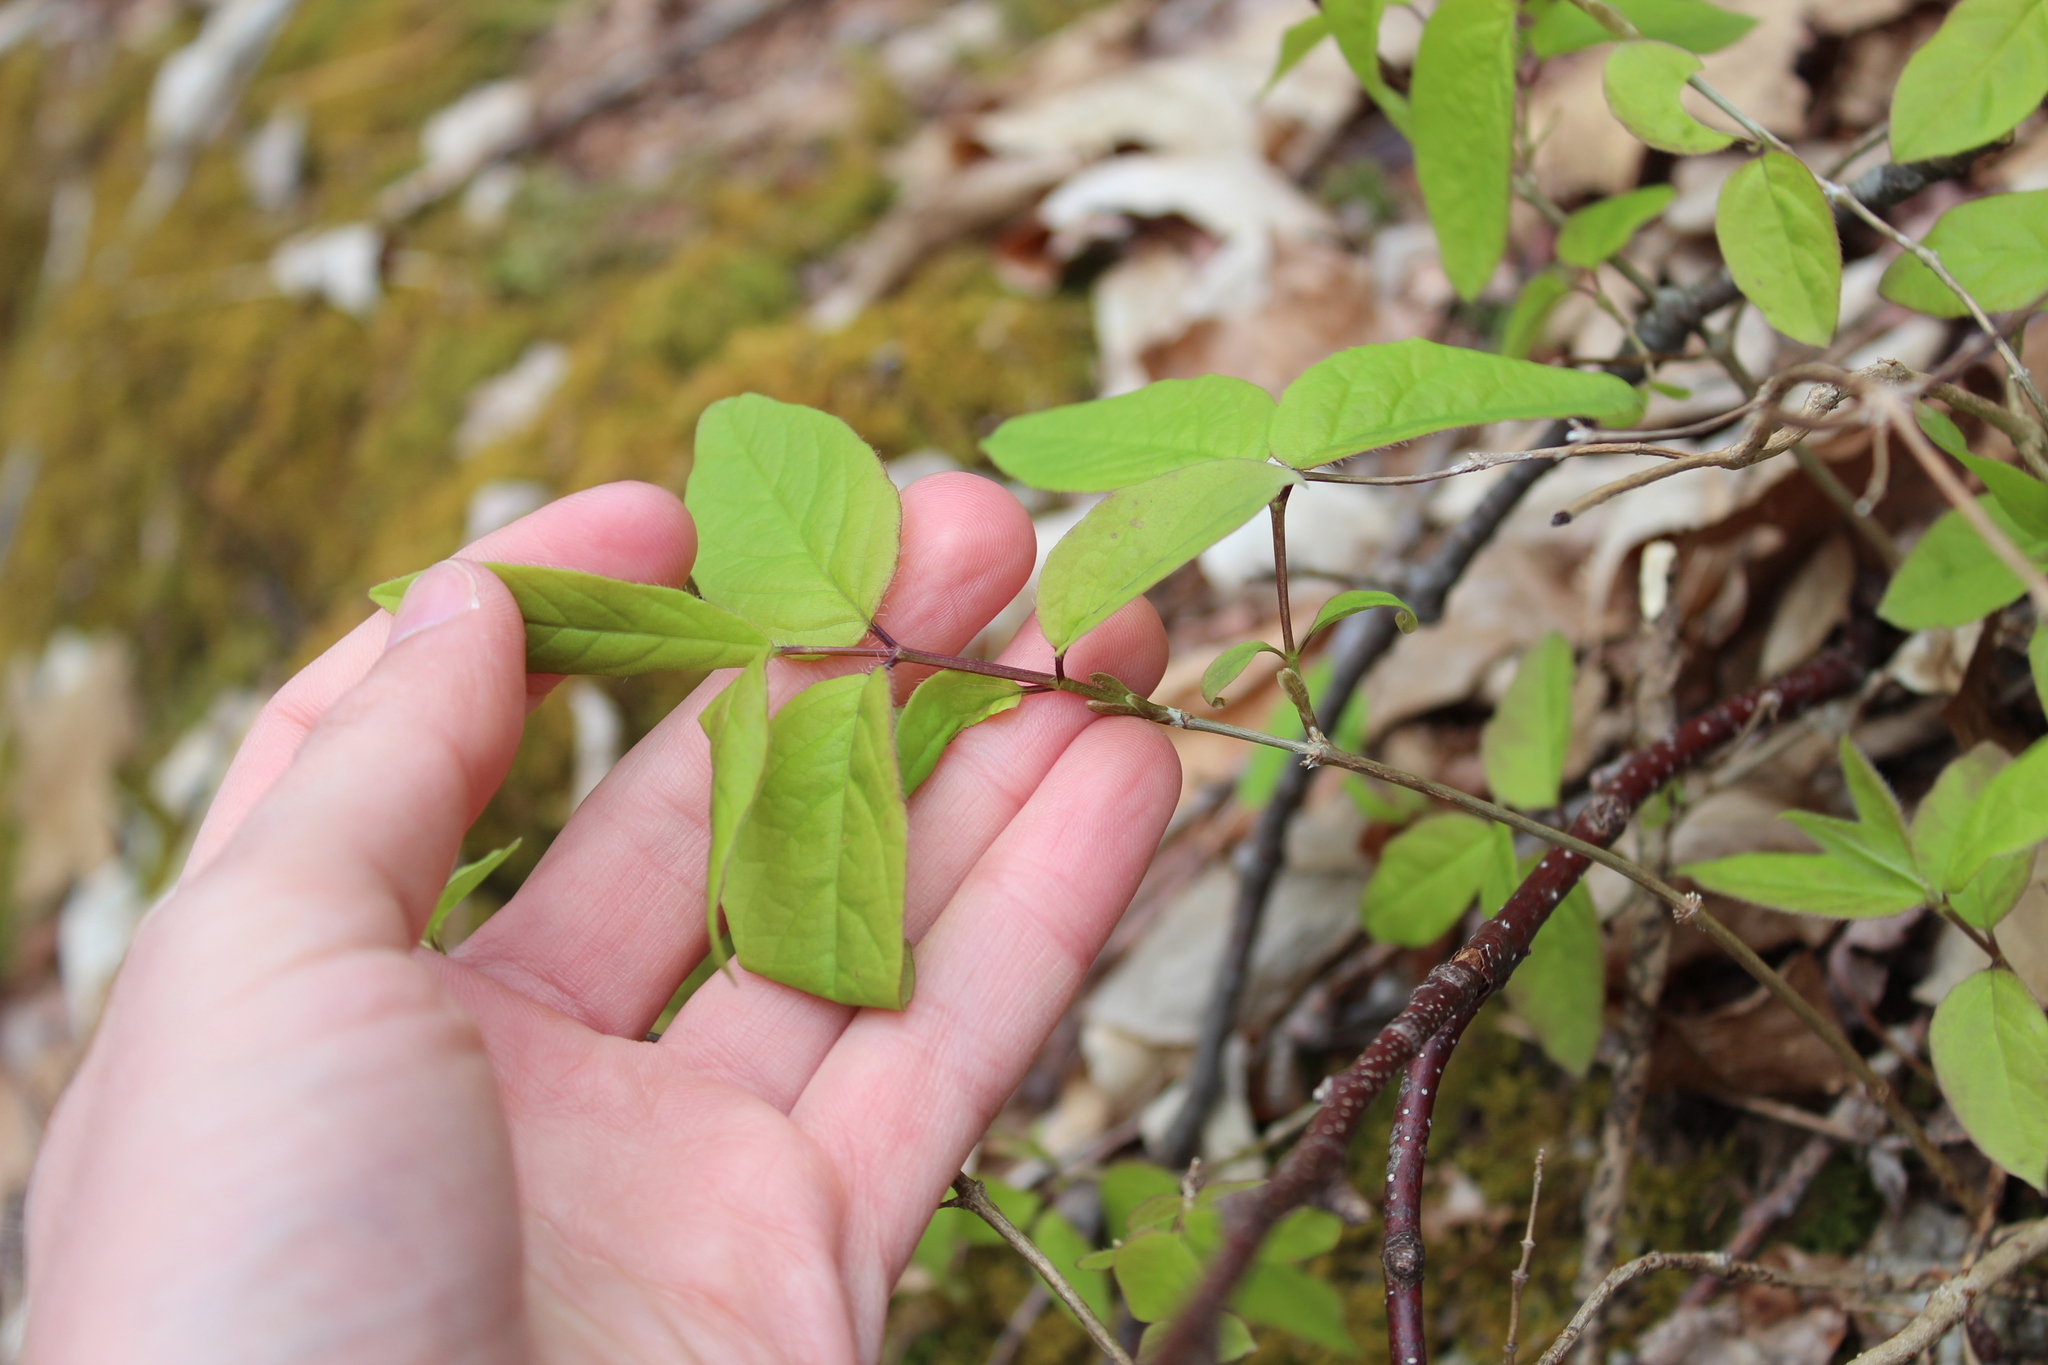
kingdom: Plantae
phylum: Tracheophyta
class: Magnoliopsida
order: Dipsacales
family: Caprifoliaceae
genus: Lonicera
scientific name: Lonicera canadensis
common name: American fly-honeysuckle
